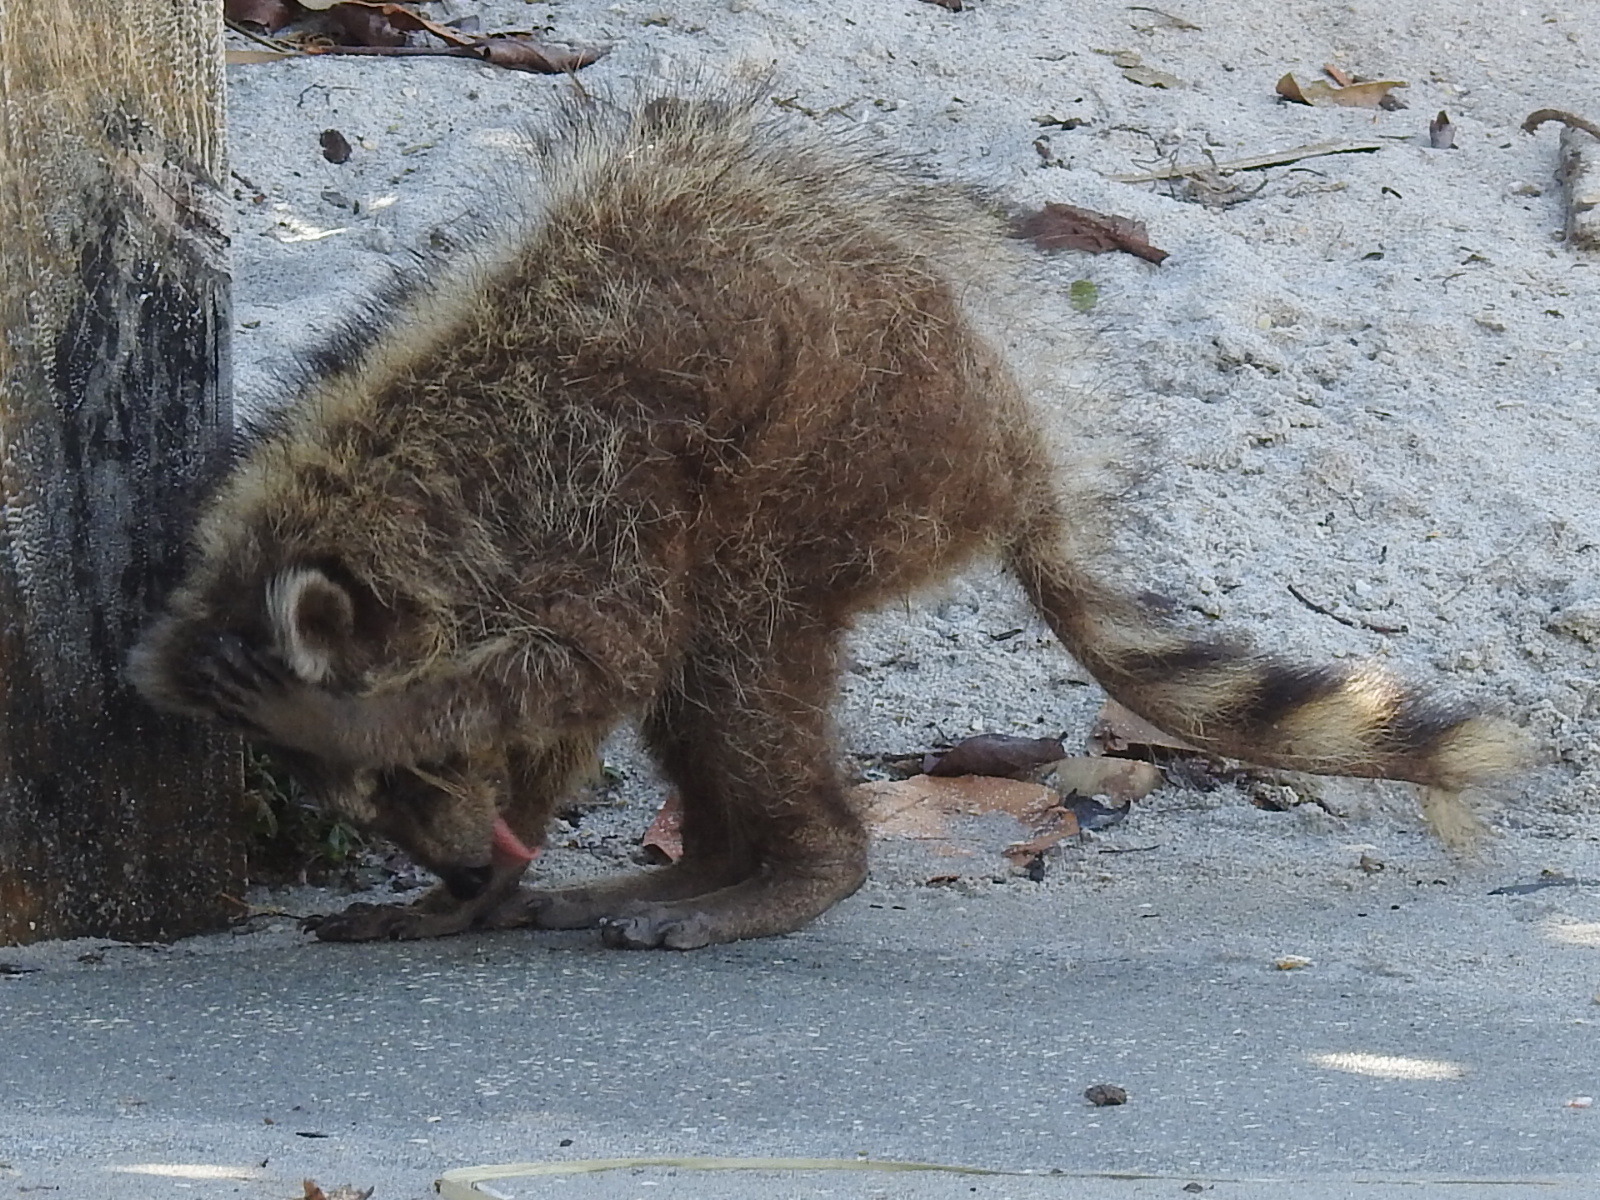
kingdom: Animalia
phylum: Chordata
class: Mammalia
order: Carnivora
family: Procyonidae
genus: Procyon
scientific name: Procyon lotor
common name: Raccoon
